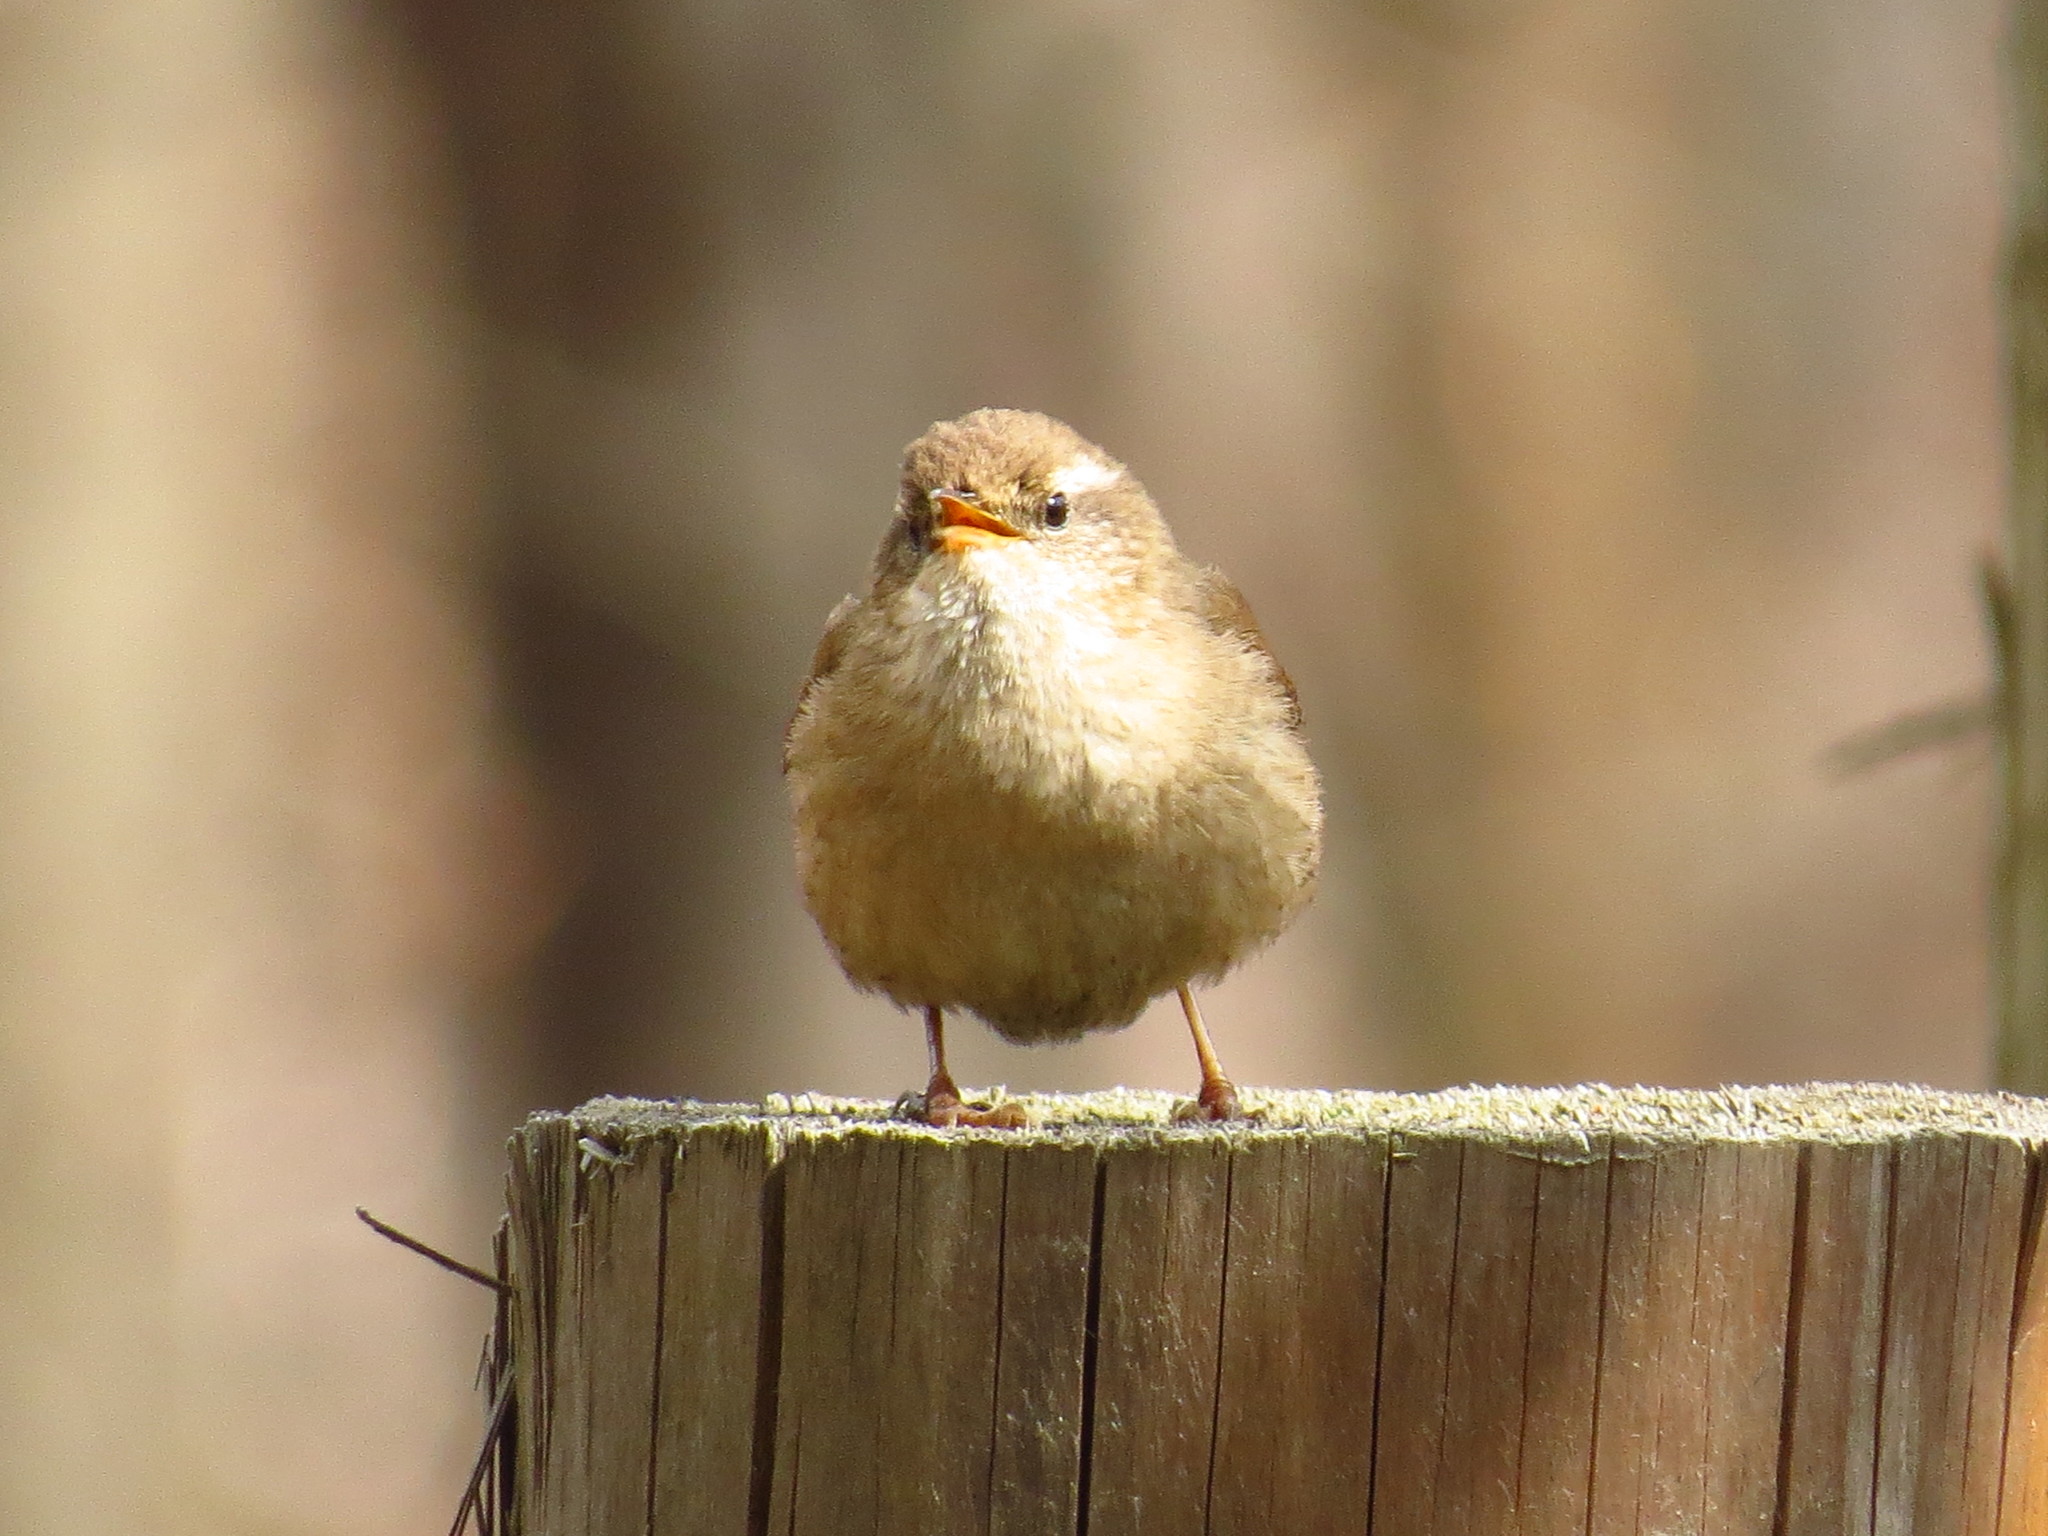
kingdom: Animalia
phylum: Chordata
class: Aves
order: Passeriformes
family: Troglodytidae
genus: Troglodytes
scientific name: Troglodytes troglodytes
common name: Eurasian wren
